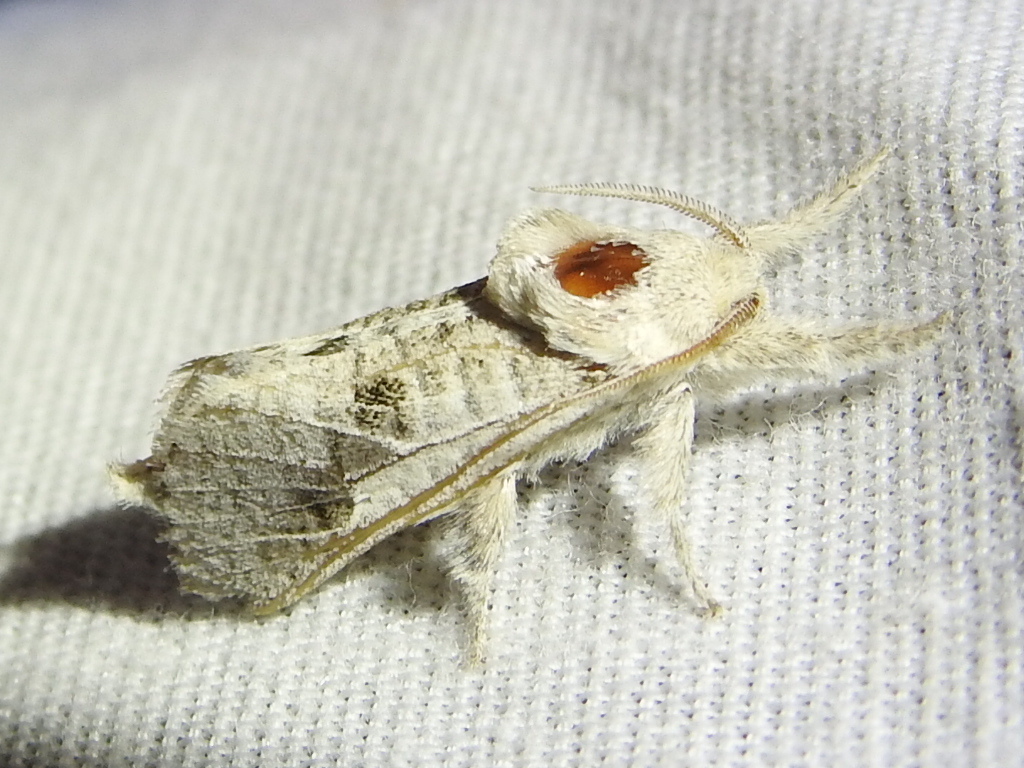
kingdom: Animalia
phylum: Arthropoda
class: Insecta
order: Lepidoptera
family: Cossidae
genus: Givira
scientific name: Givira
